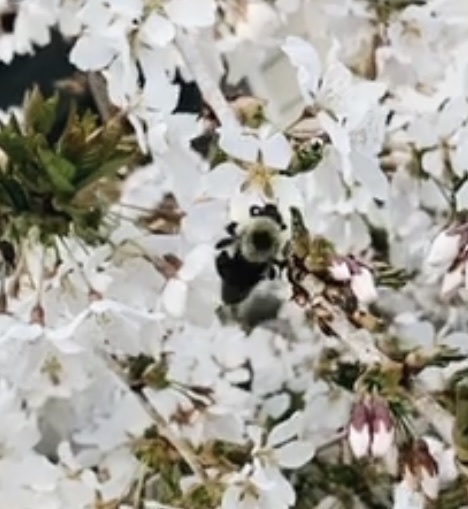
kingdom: Animalia
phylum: Arthropoda
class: Insecta
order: Hymenoptera
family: Apidae
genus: Bombus
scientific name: Bombus bimaculatus
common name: Two-spotted bumble bee
